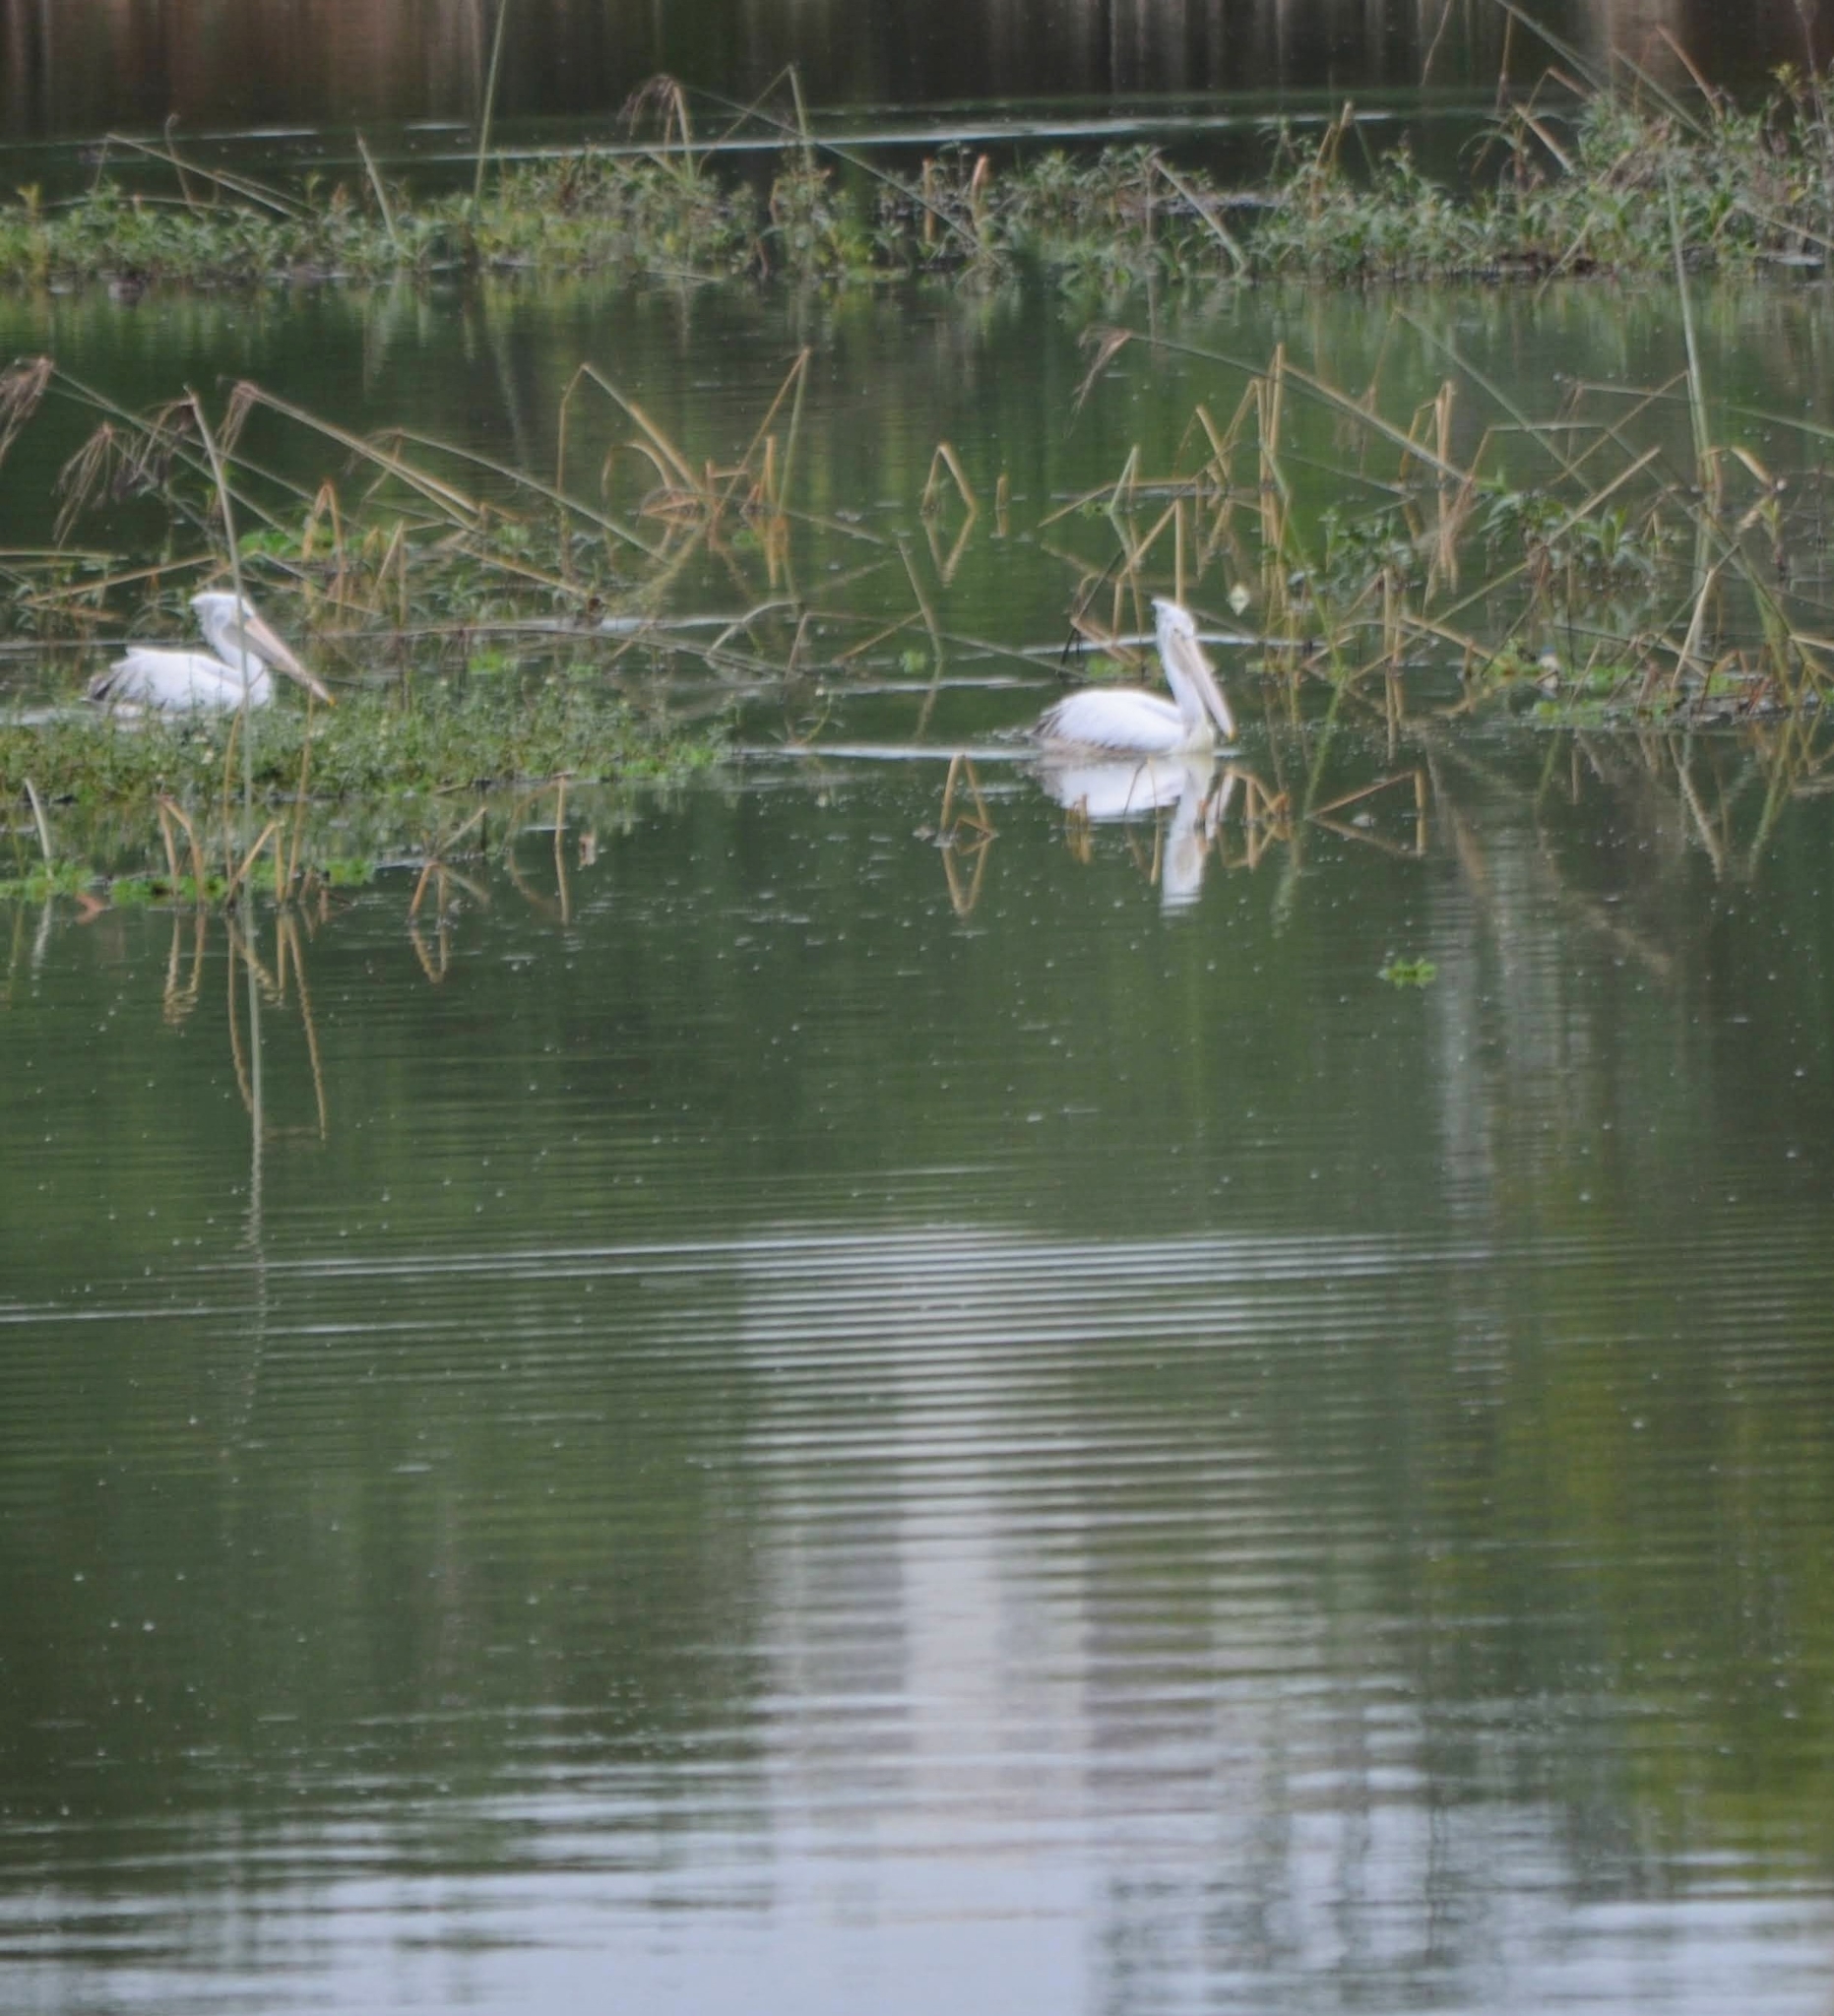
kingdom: Animalia
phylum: Chordata
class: Aves
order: Pelecaniformes
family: Pelecanidae
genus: Pelecanus
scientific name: Pelecanus philippensis
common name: Spot-billed pelican
